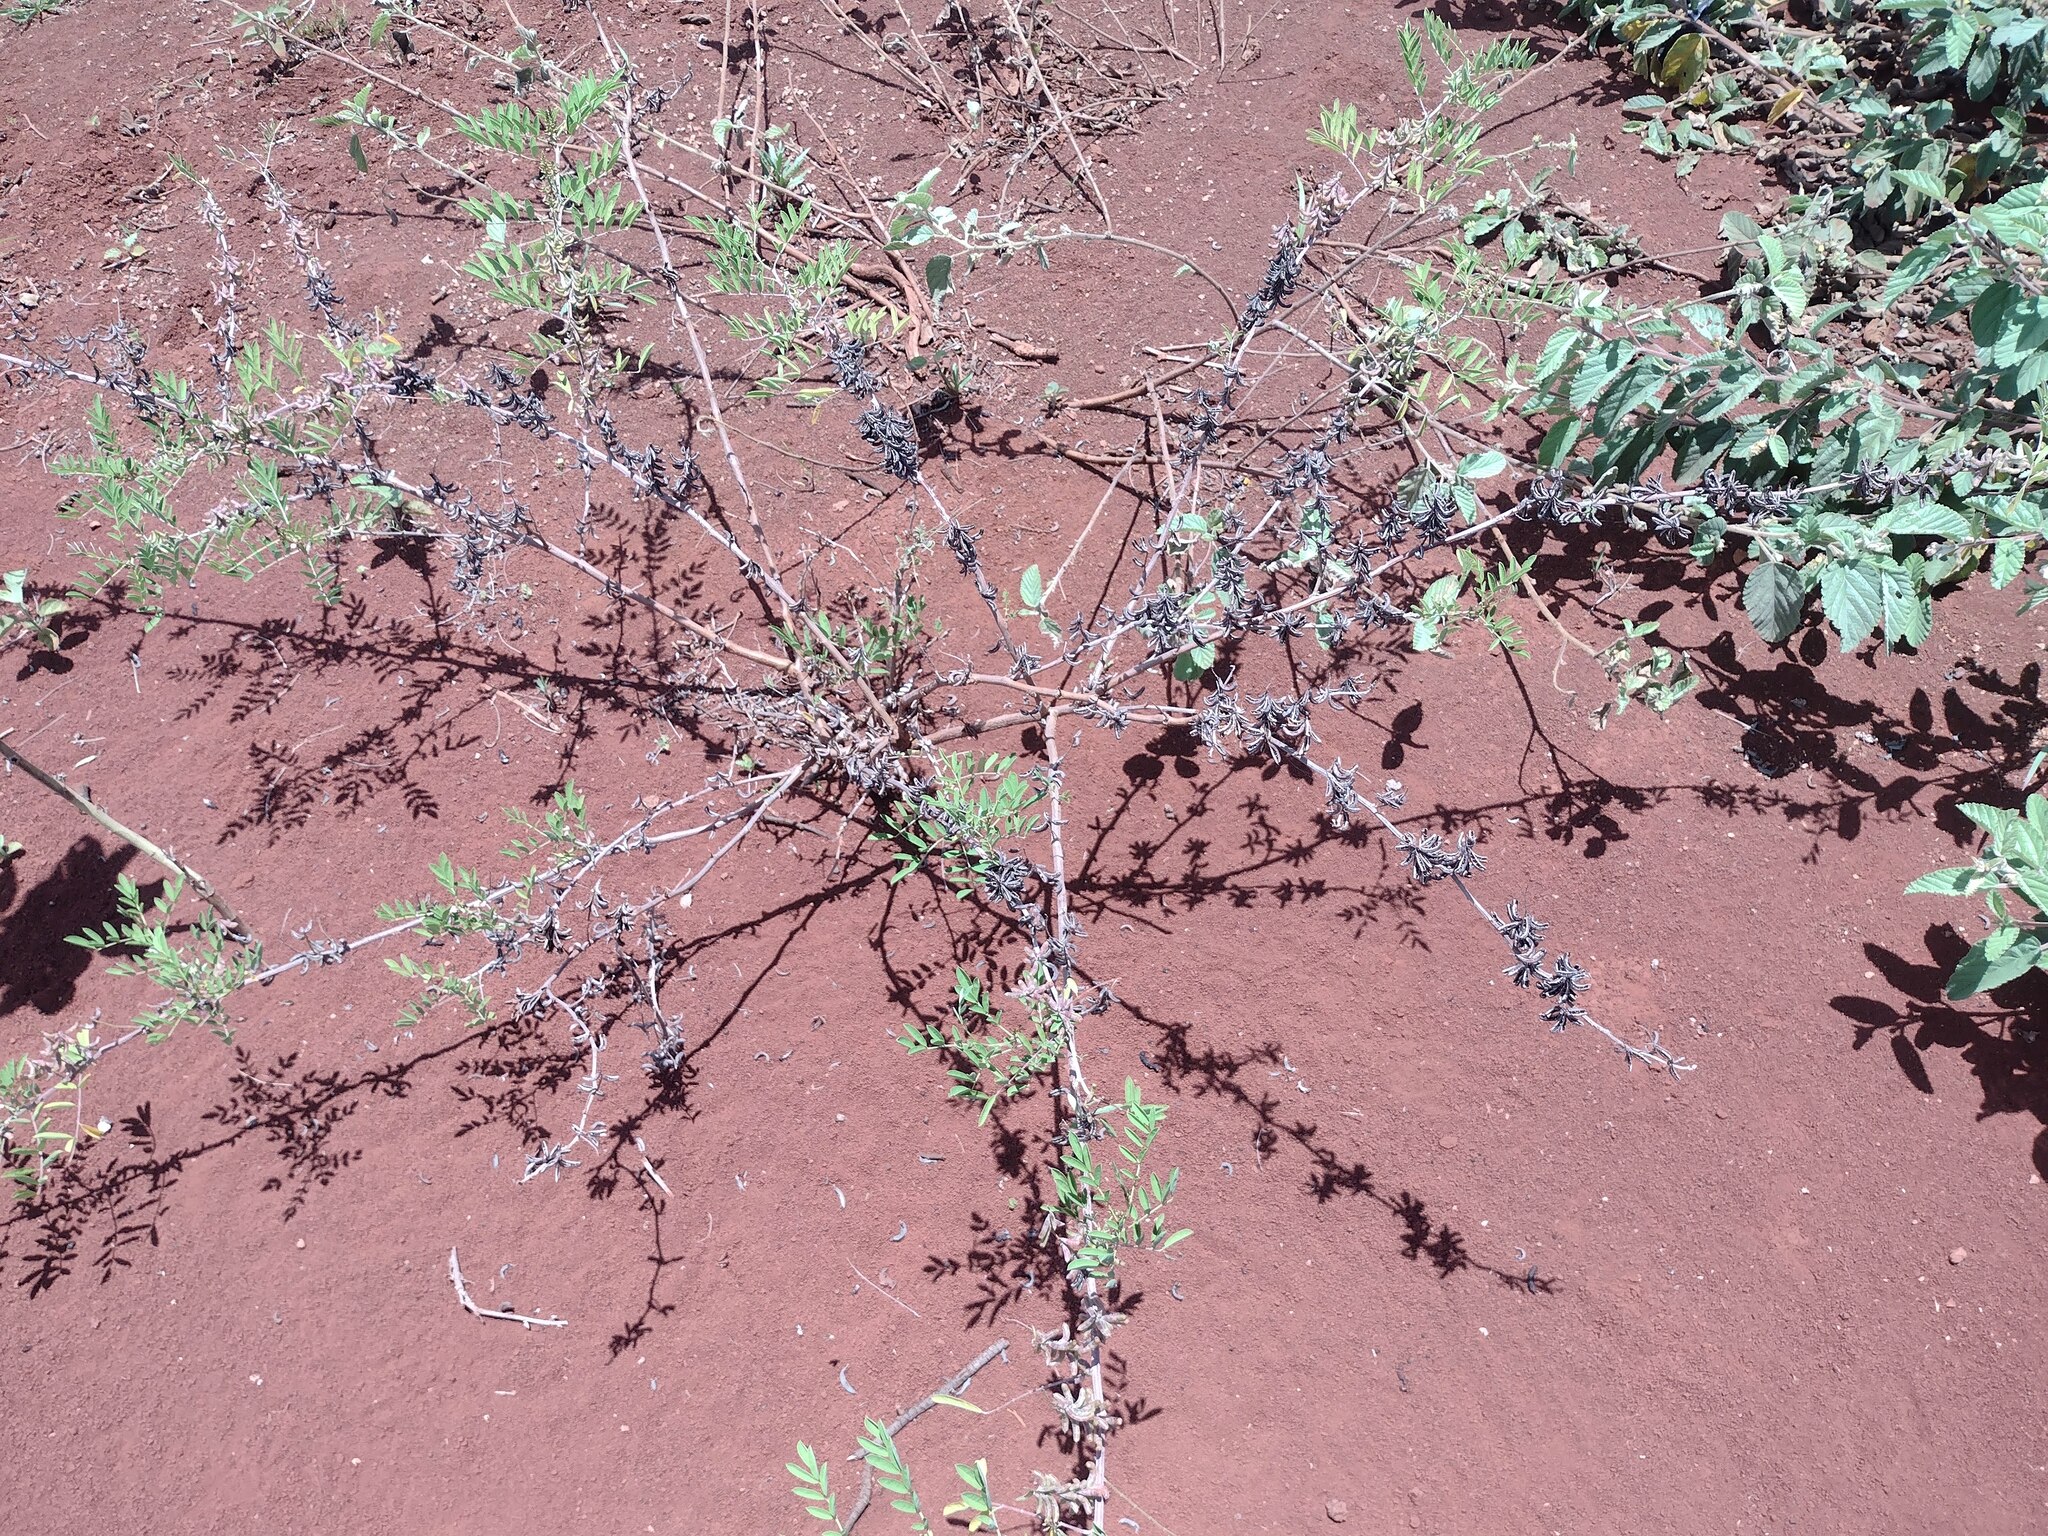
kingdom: Plantae
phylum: Tracheophyta
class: Magnoliopsida
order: Fabales
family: Fabaceae
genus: Indigofera
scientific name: Indigofera suffruticosa
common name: Anil de pasto
